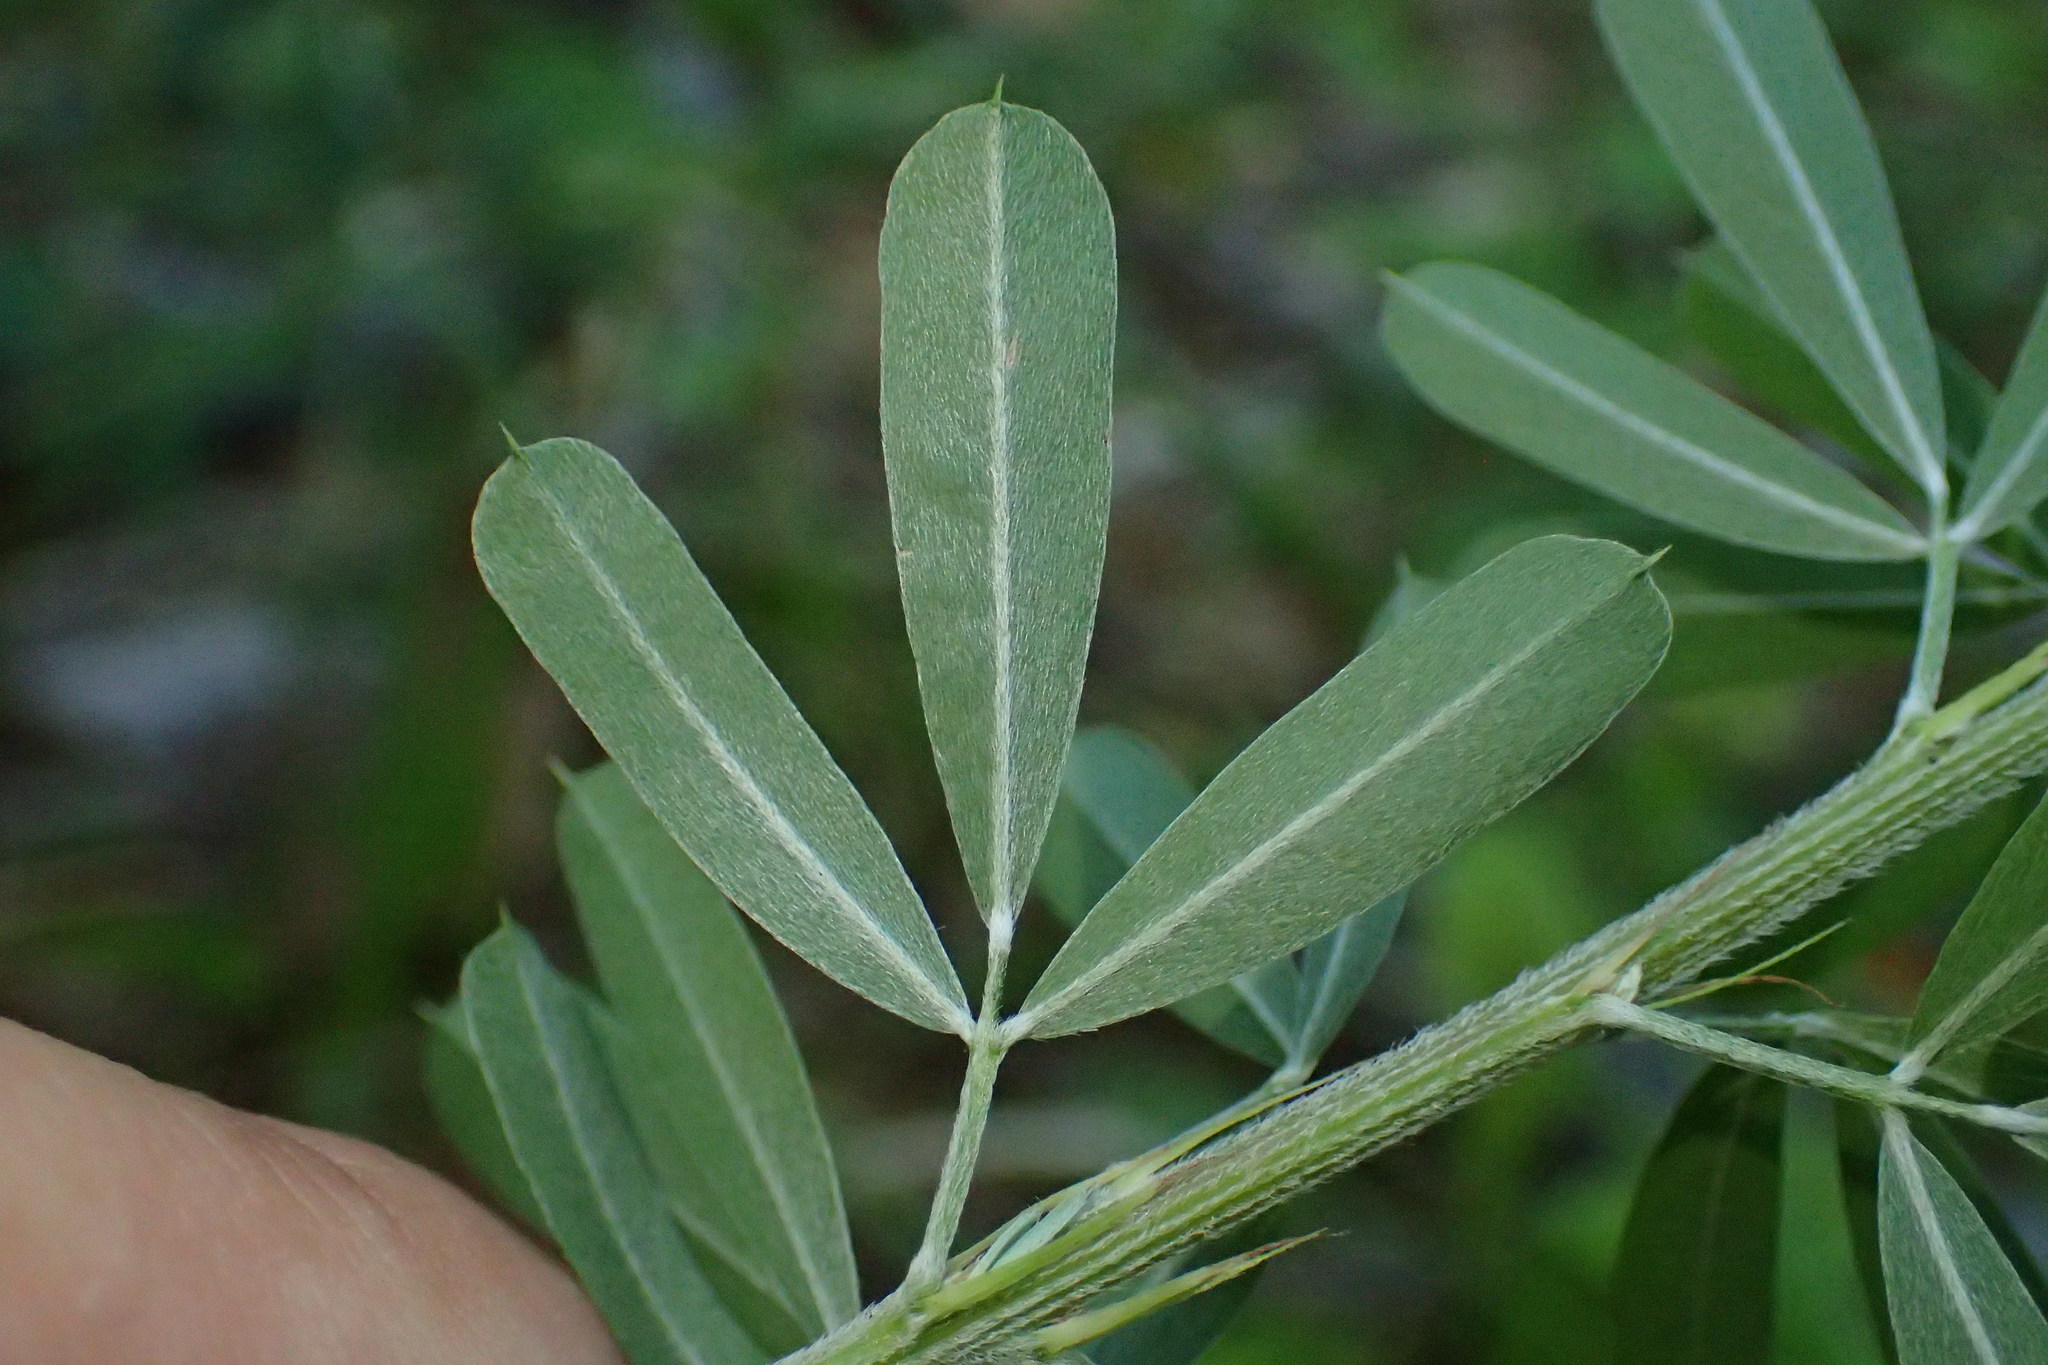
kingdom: Plantae
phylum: Tracheophyta
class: Magnoliopsida
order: Fabales
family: Fabaceae
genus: Lespedeza
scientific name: Lespedeza cuneata
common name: Chinese bush-clover
